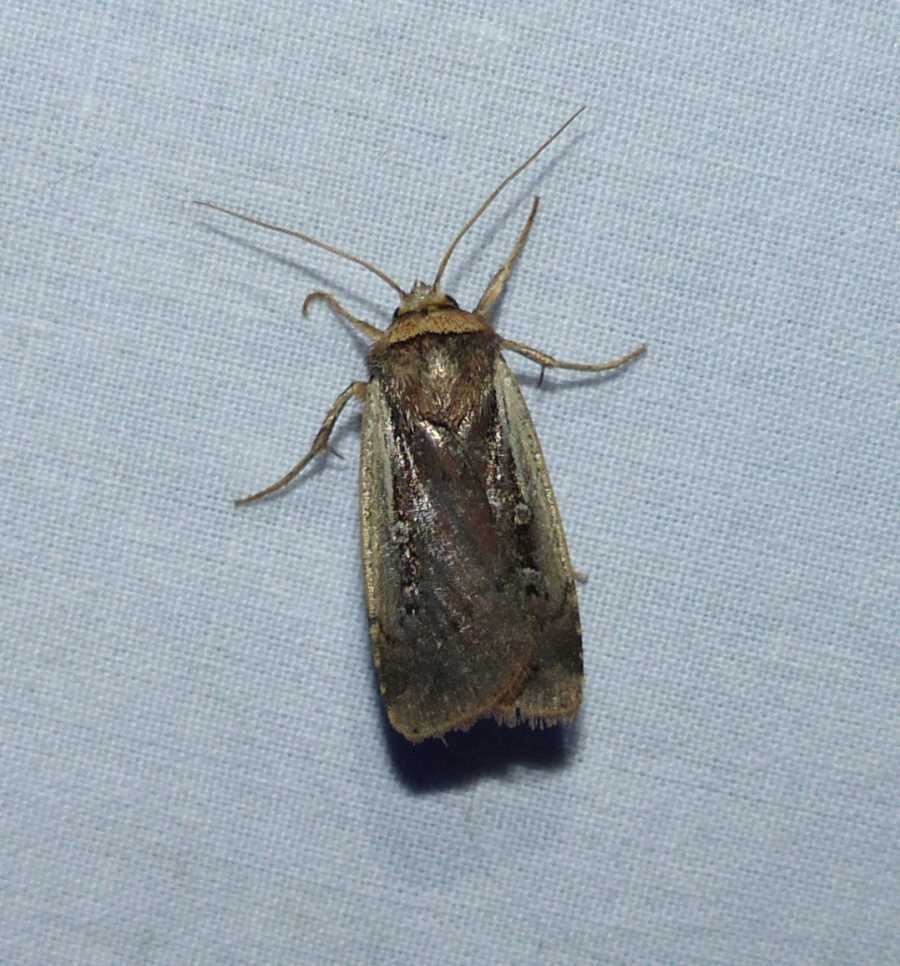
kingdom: Animalia
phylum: Arthropoda
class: Insecta
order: Lepidoptera
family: Noctuidae
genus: Ochropleura
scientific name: Ochropleura implecta
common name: Flame-shouldered dart
